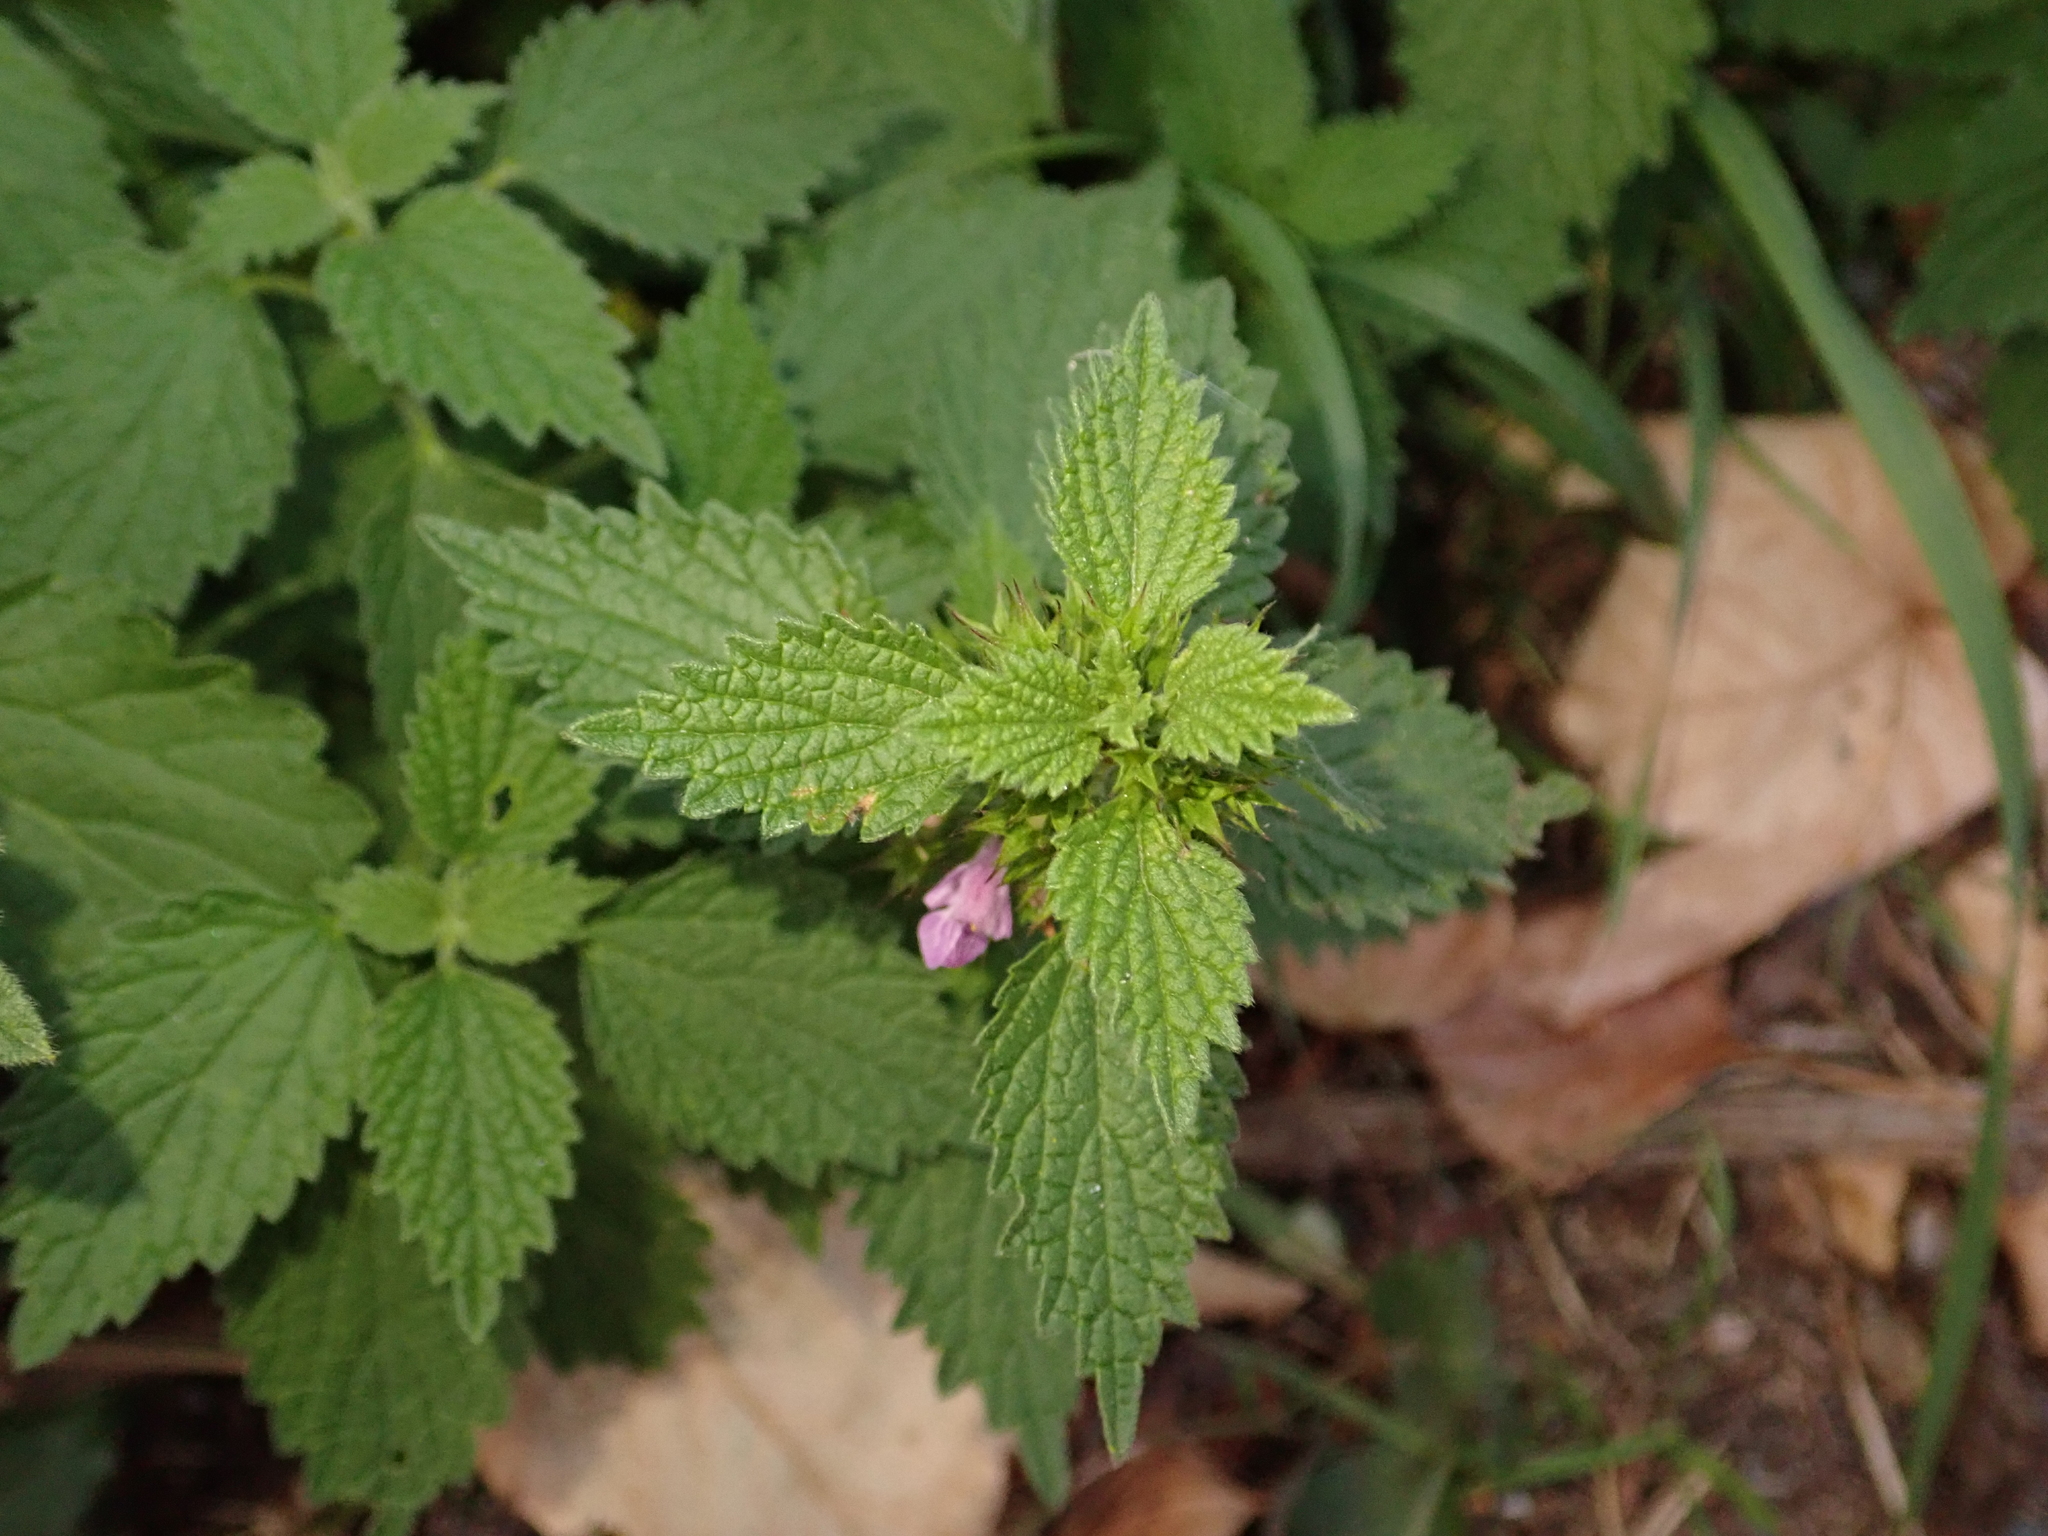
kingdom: Plantae
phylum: Tracheophyta
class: Magnoliopsida
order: Lamiales
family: Lamiaceae
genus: Ballota
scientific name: Ballota nigra
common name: Black horehound
